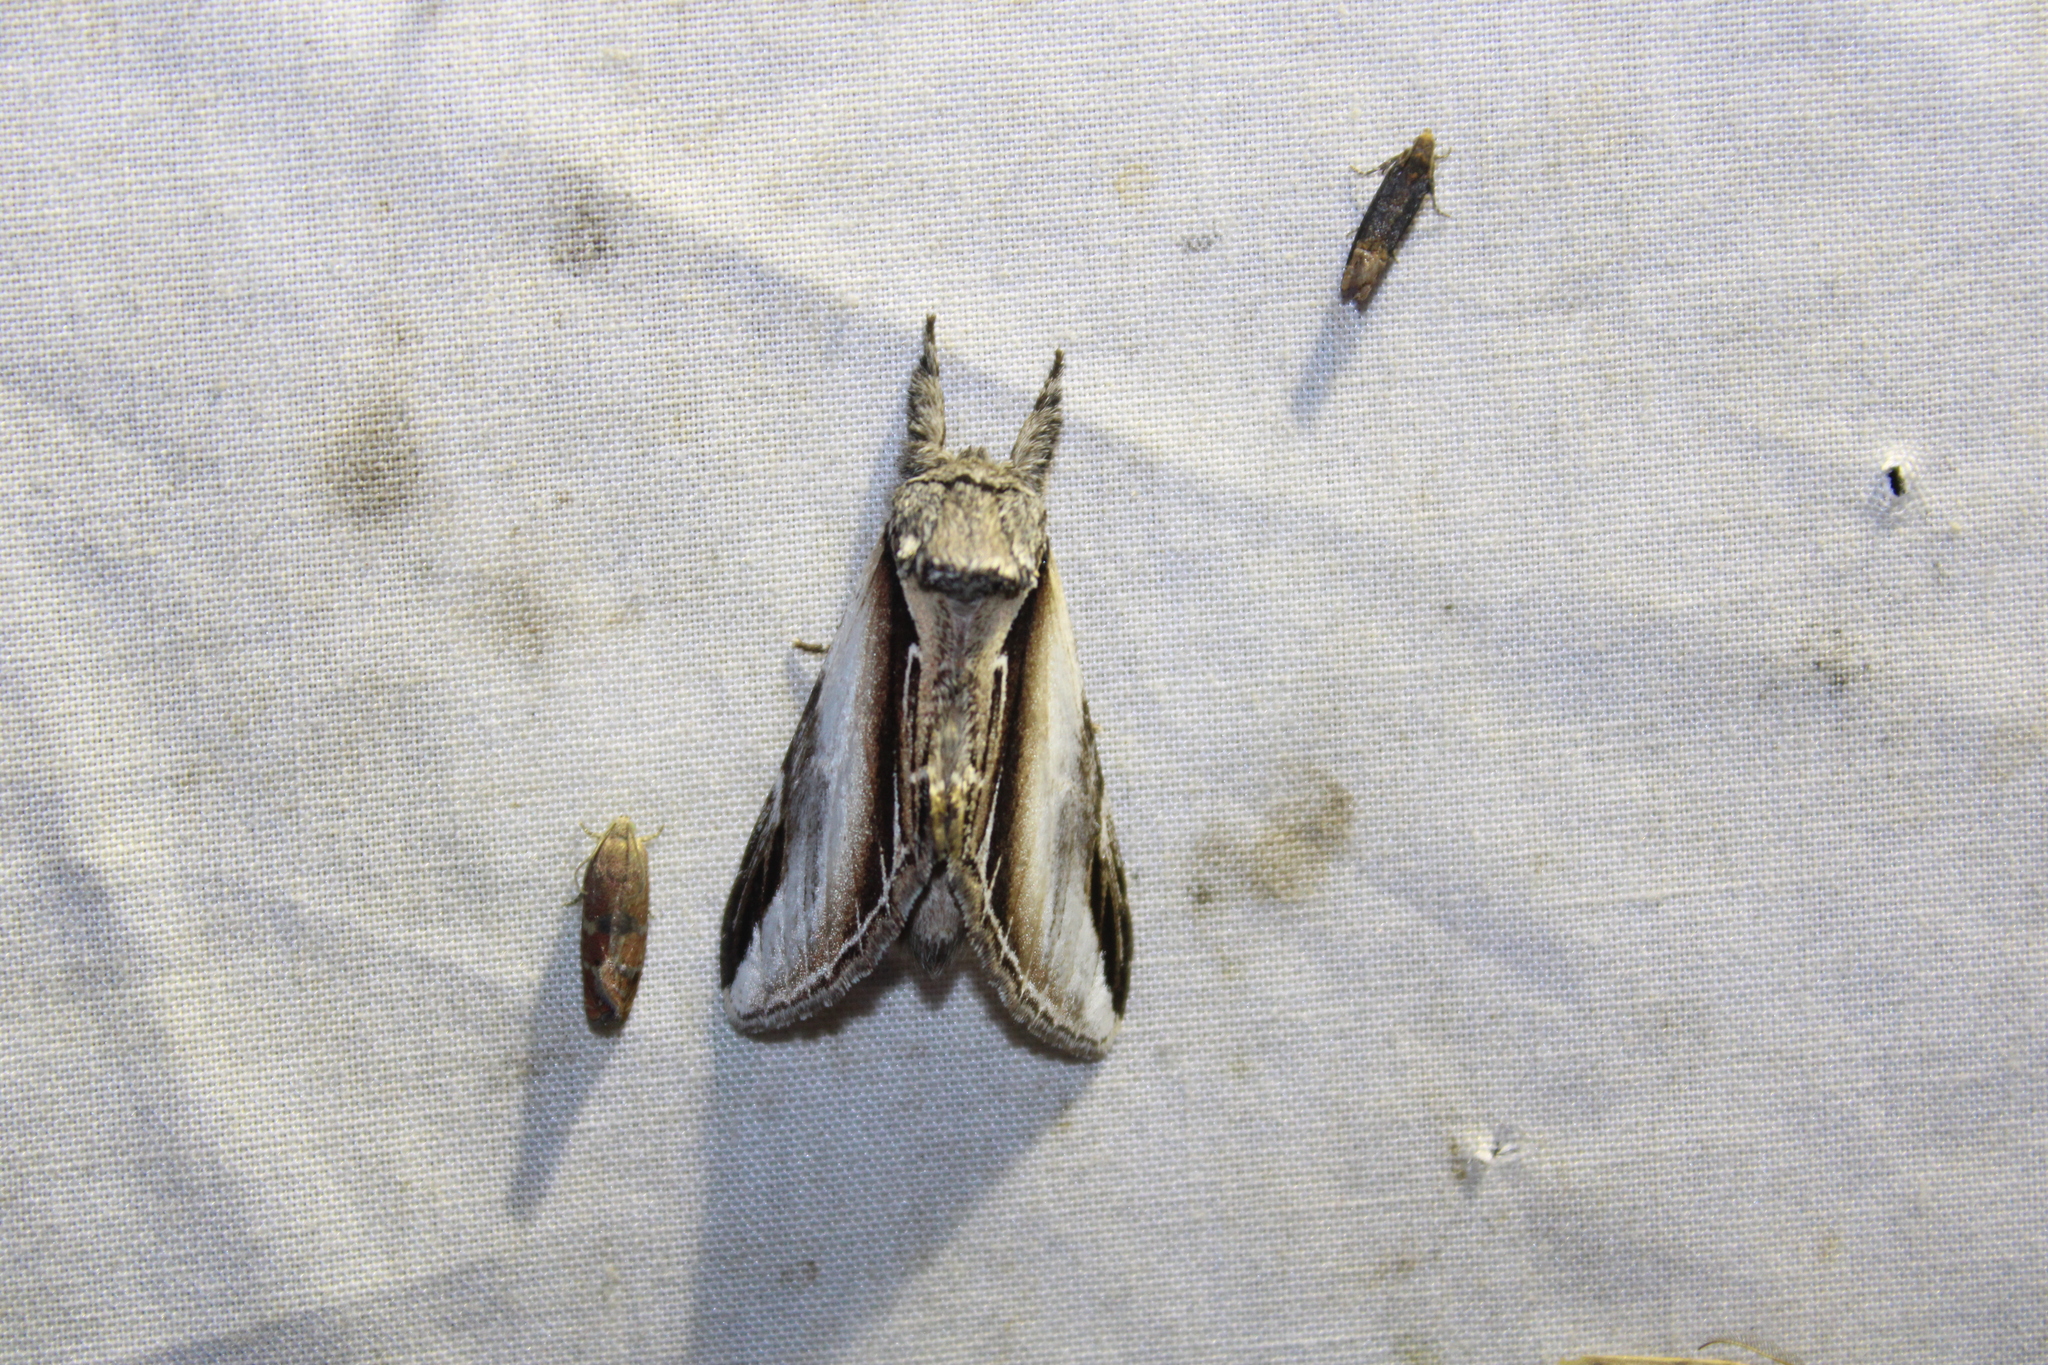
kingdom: Animalia
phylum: Arthropoda
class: Insecta
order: Lepidoptera
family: Notodontidae
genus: Pheosia
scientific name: Pheosia rimosa
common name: Black-rimmed prominent
